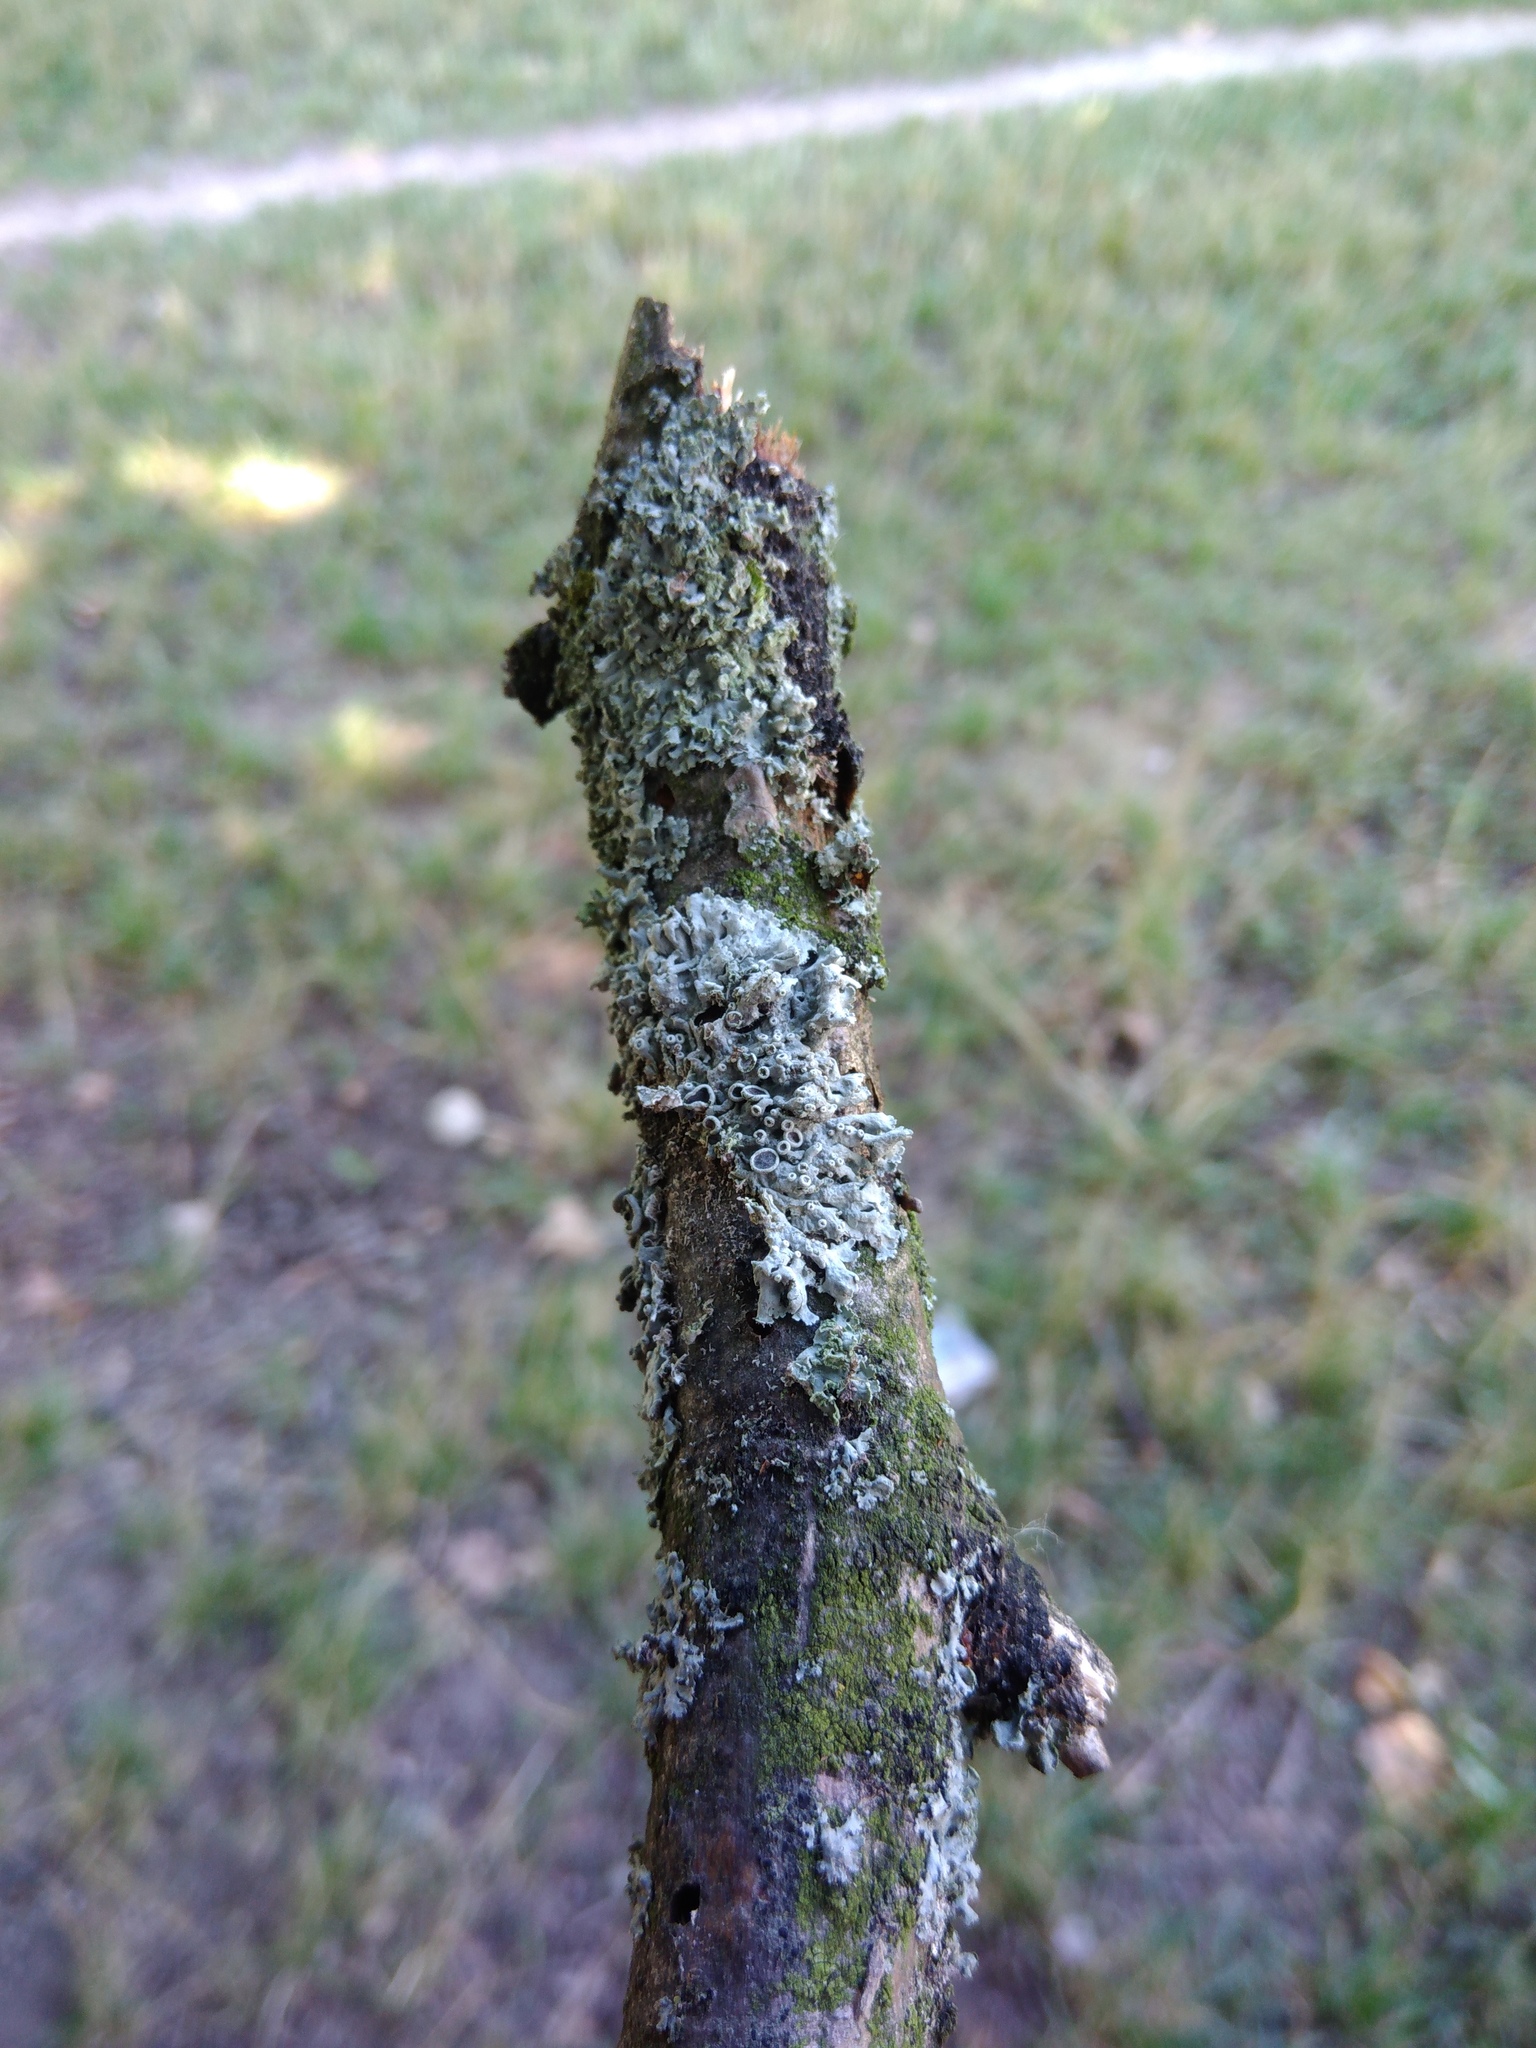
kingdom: Fungi
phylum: Ascomycota
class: Lecanoromycetes
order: Caliciales
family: Physciaceae
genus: Physcia
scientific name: Physcia stellaris
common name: Star rosette lichen
